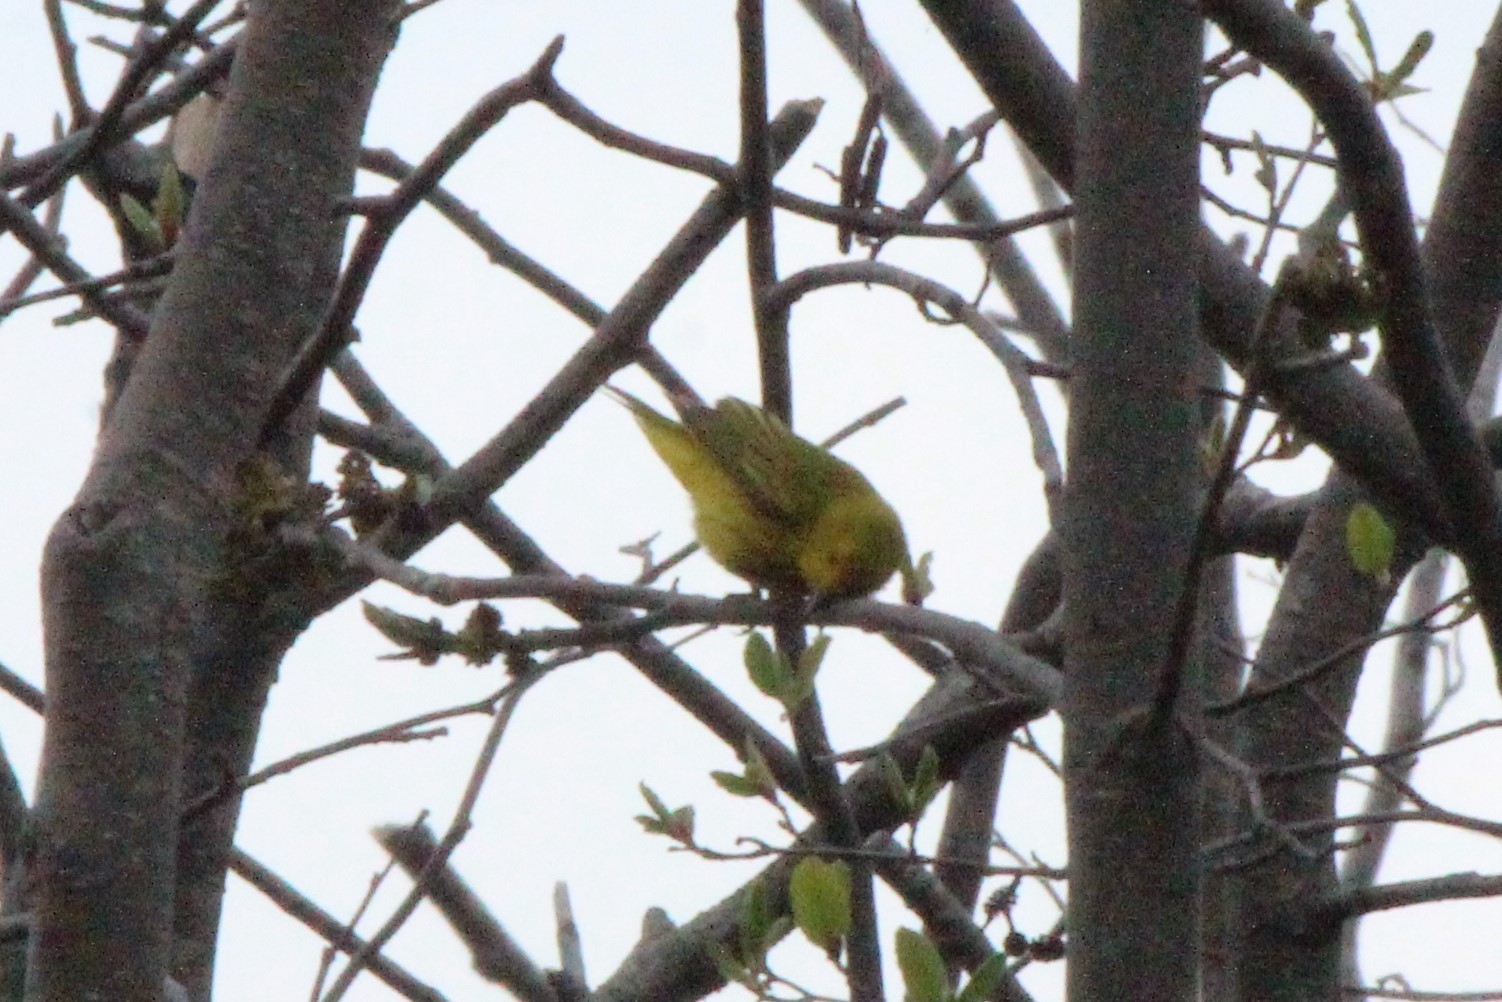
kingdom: Animalia
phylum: Chordata
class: Aves
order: Passeriformes
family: Parulidae
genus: Setophaga
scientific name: Setophaga petechia
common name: Yellow warbler
